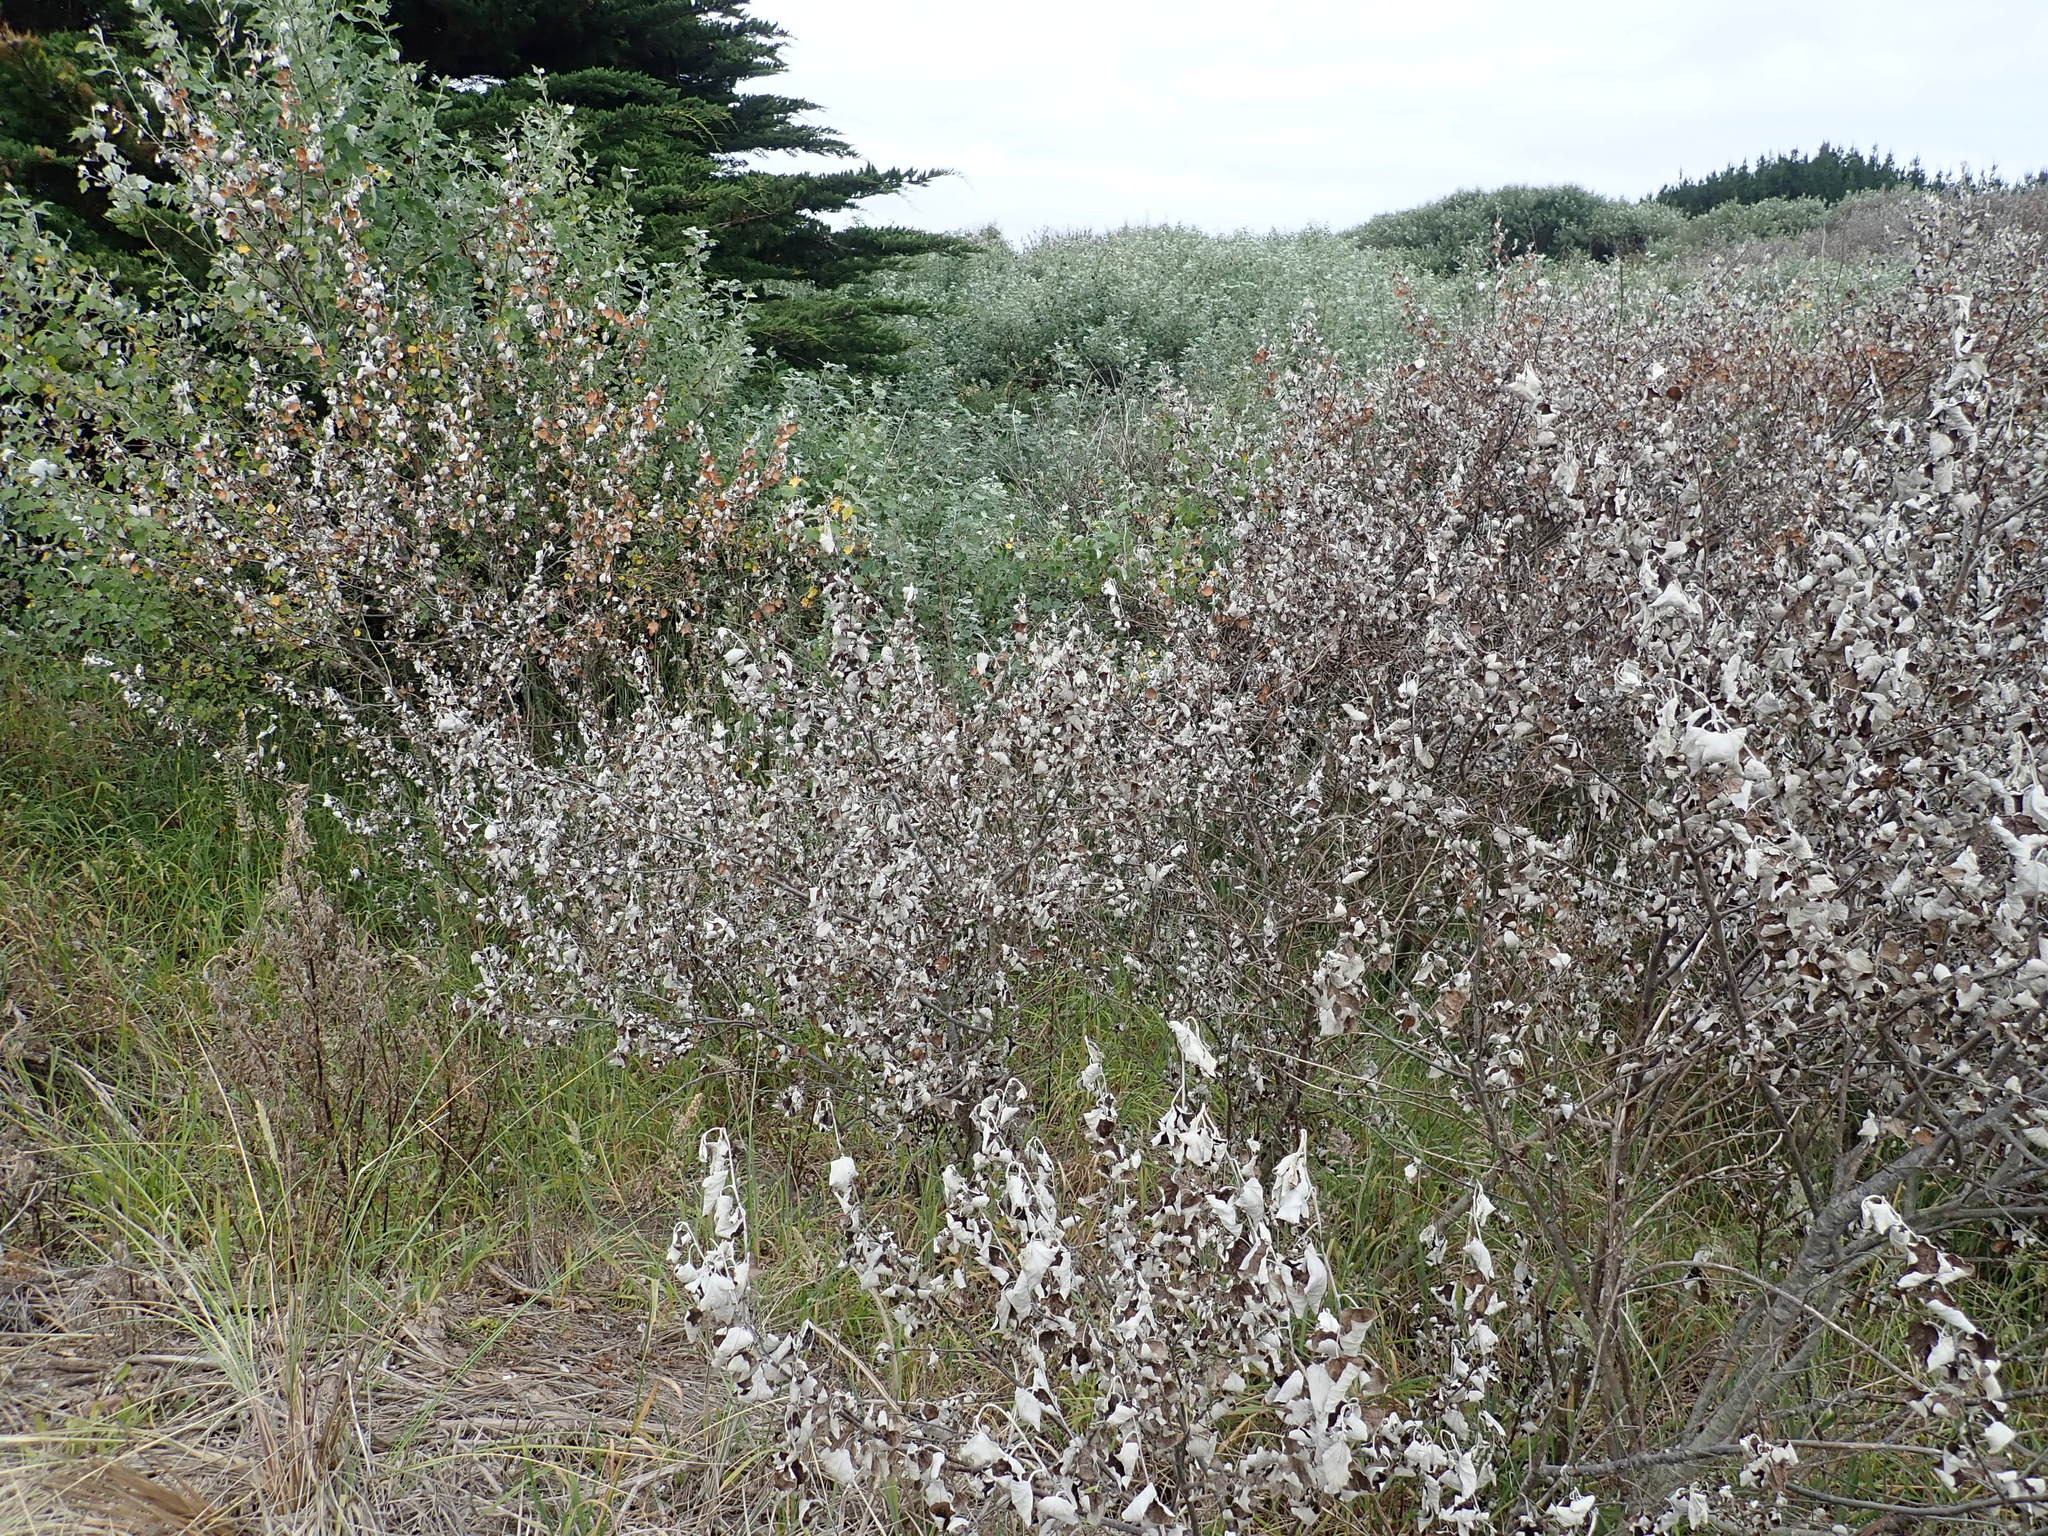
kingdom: Plantae
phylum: Tracheophyta
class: Magnoliopsida
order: Malpighiales
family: Salicaceae
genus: Populus
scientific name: Populus alba
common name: White poplar
